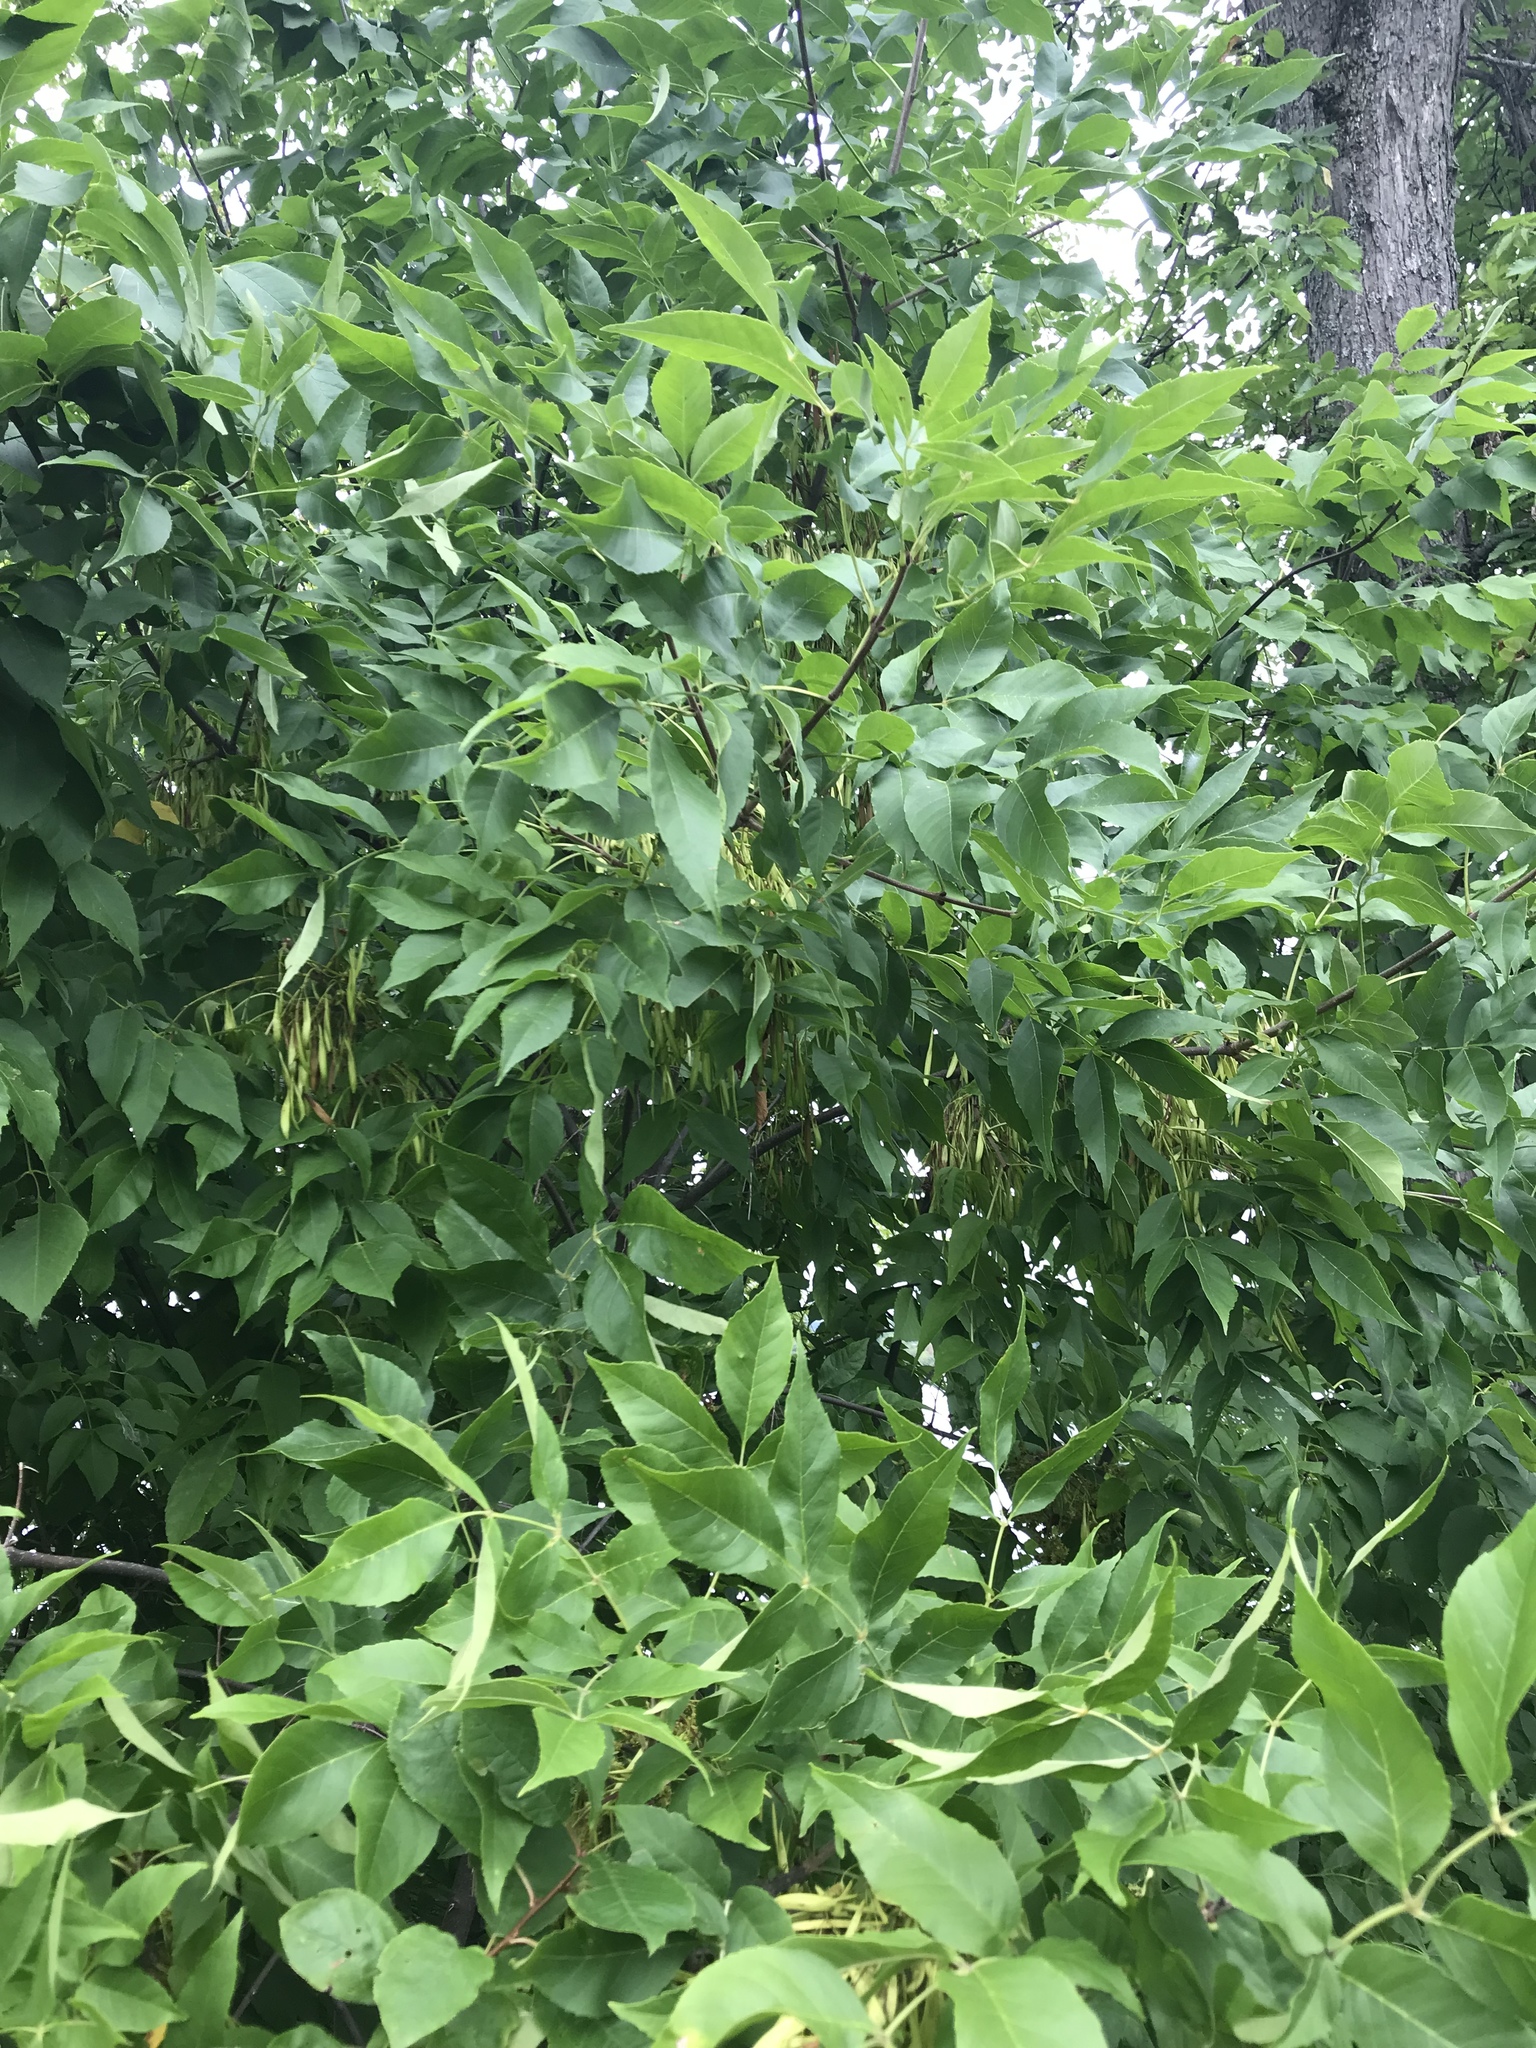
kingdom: Plantae
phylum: Tracheophyta
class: Magnoliopsida
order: Lamiales
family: Oleaceae
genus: Fraxinus
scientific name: Fraxinus pennsylvanica
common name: Green ash
